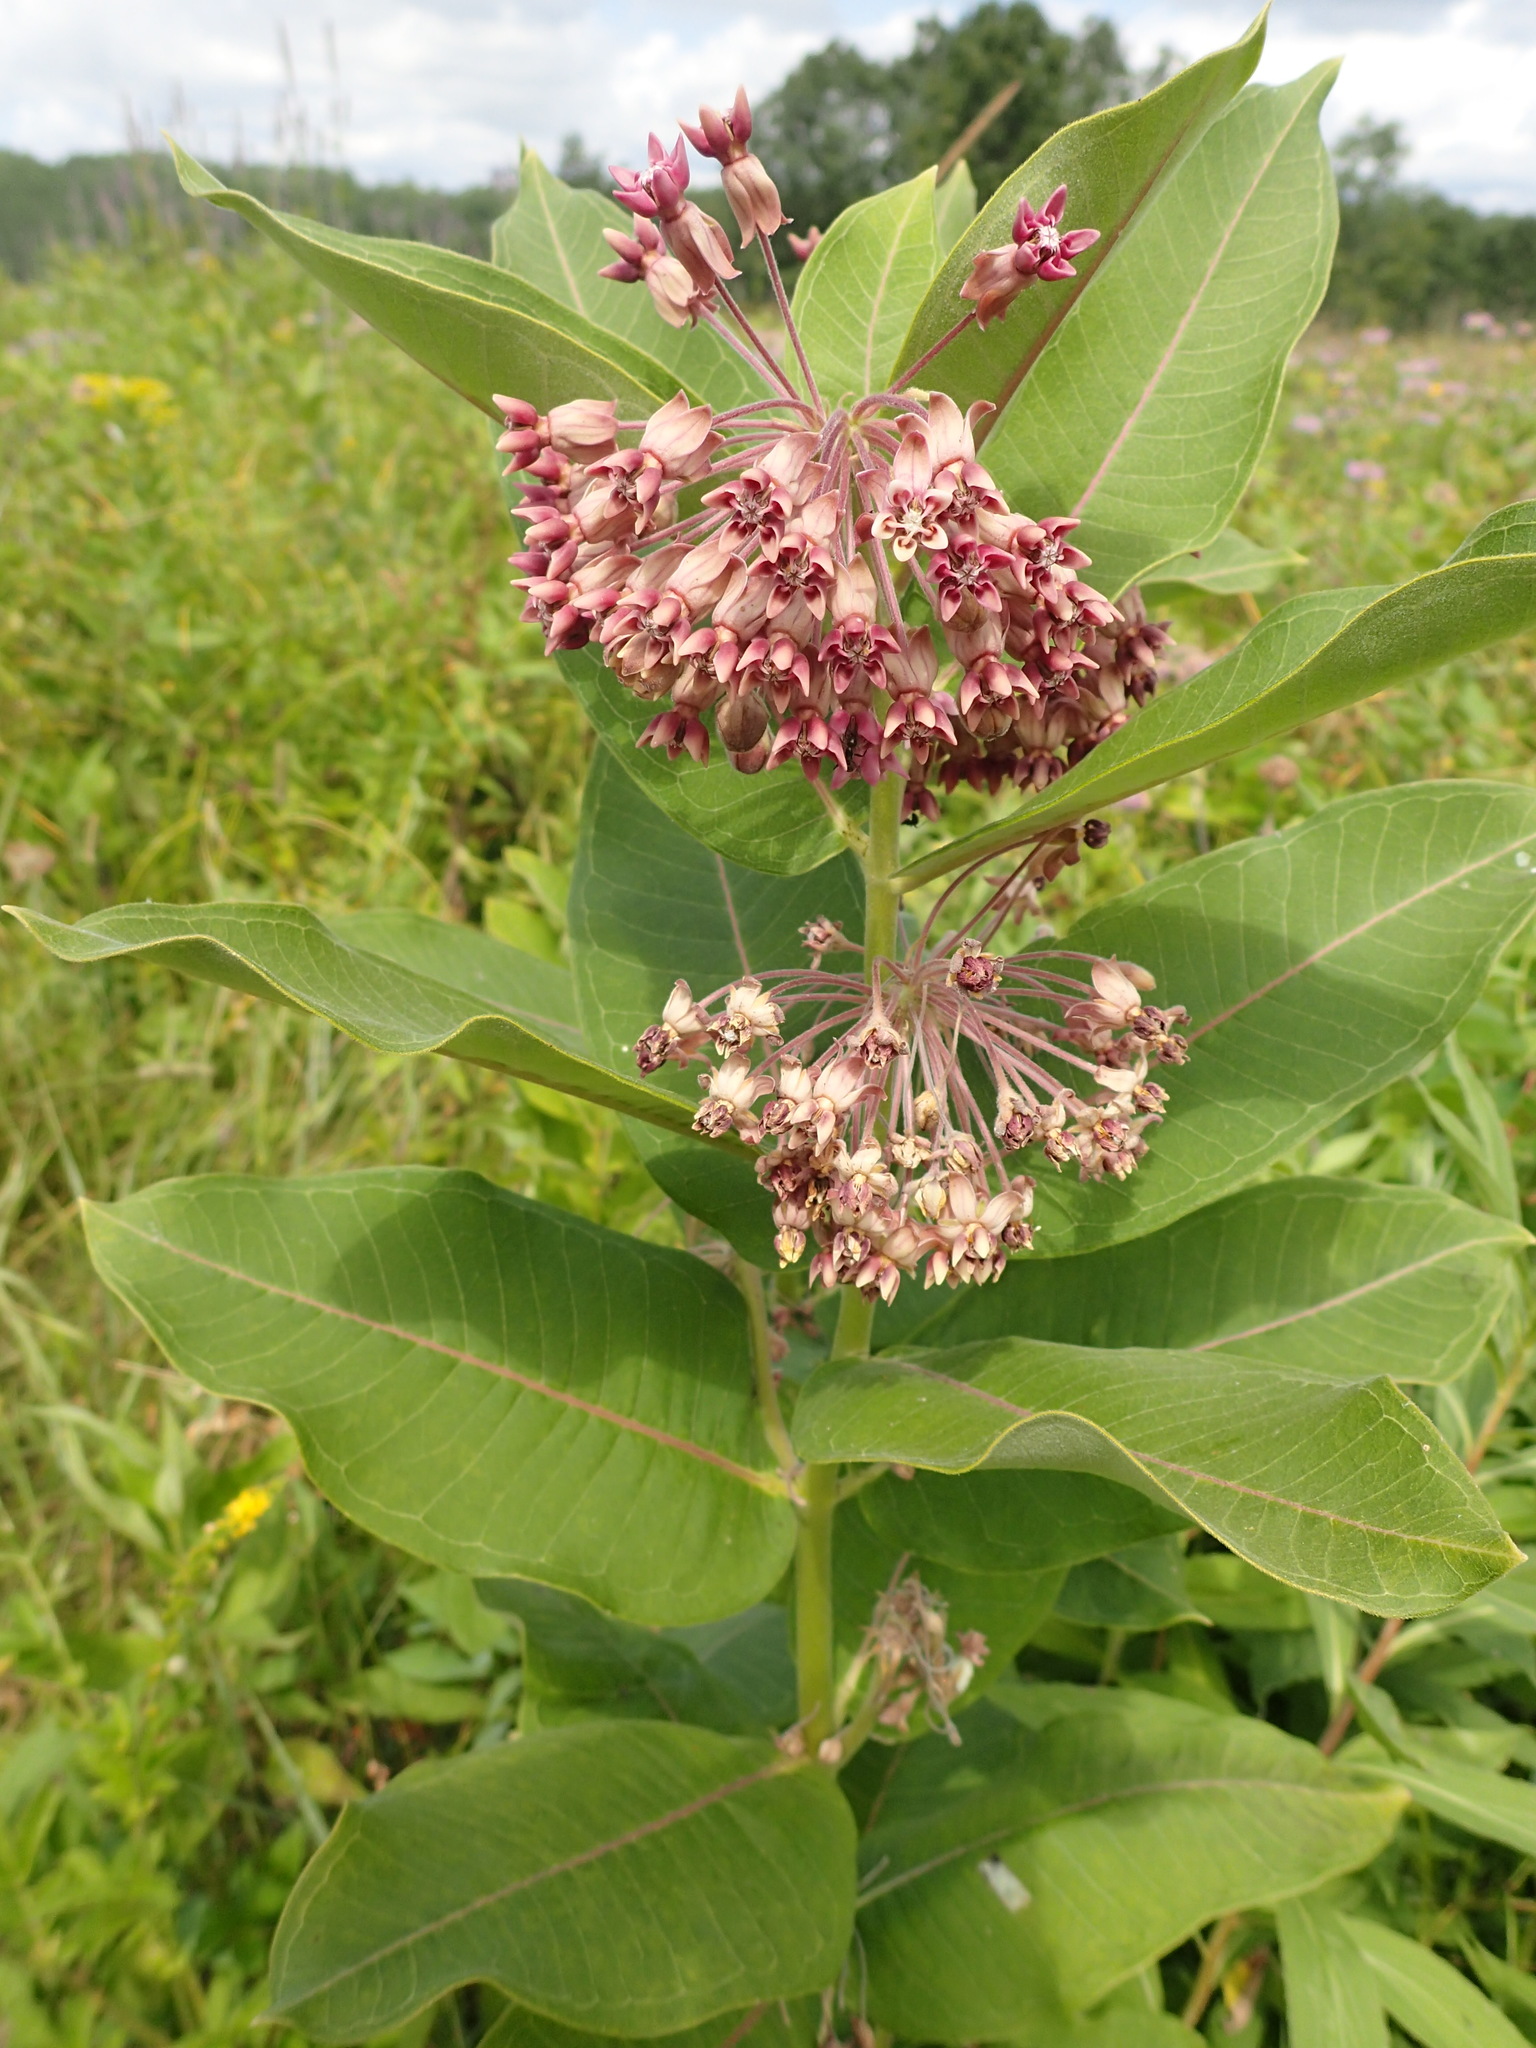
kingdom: Plantae
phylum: Tracheophyta
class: Magnoliopsida
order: Gentianales
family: Apocynaceae
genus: Asclepias
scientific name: Asclepias syriaca
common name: Common milkweed
